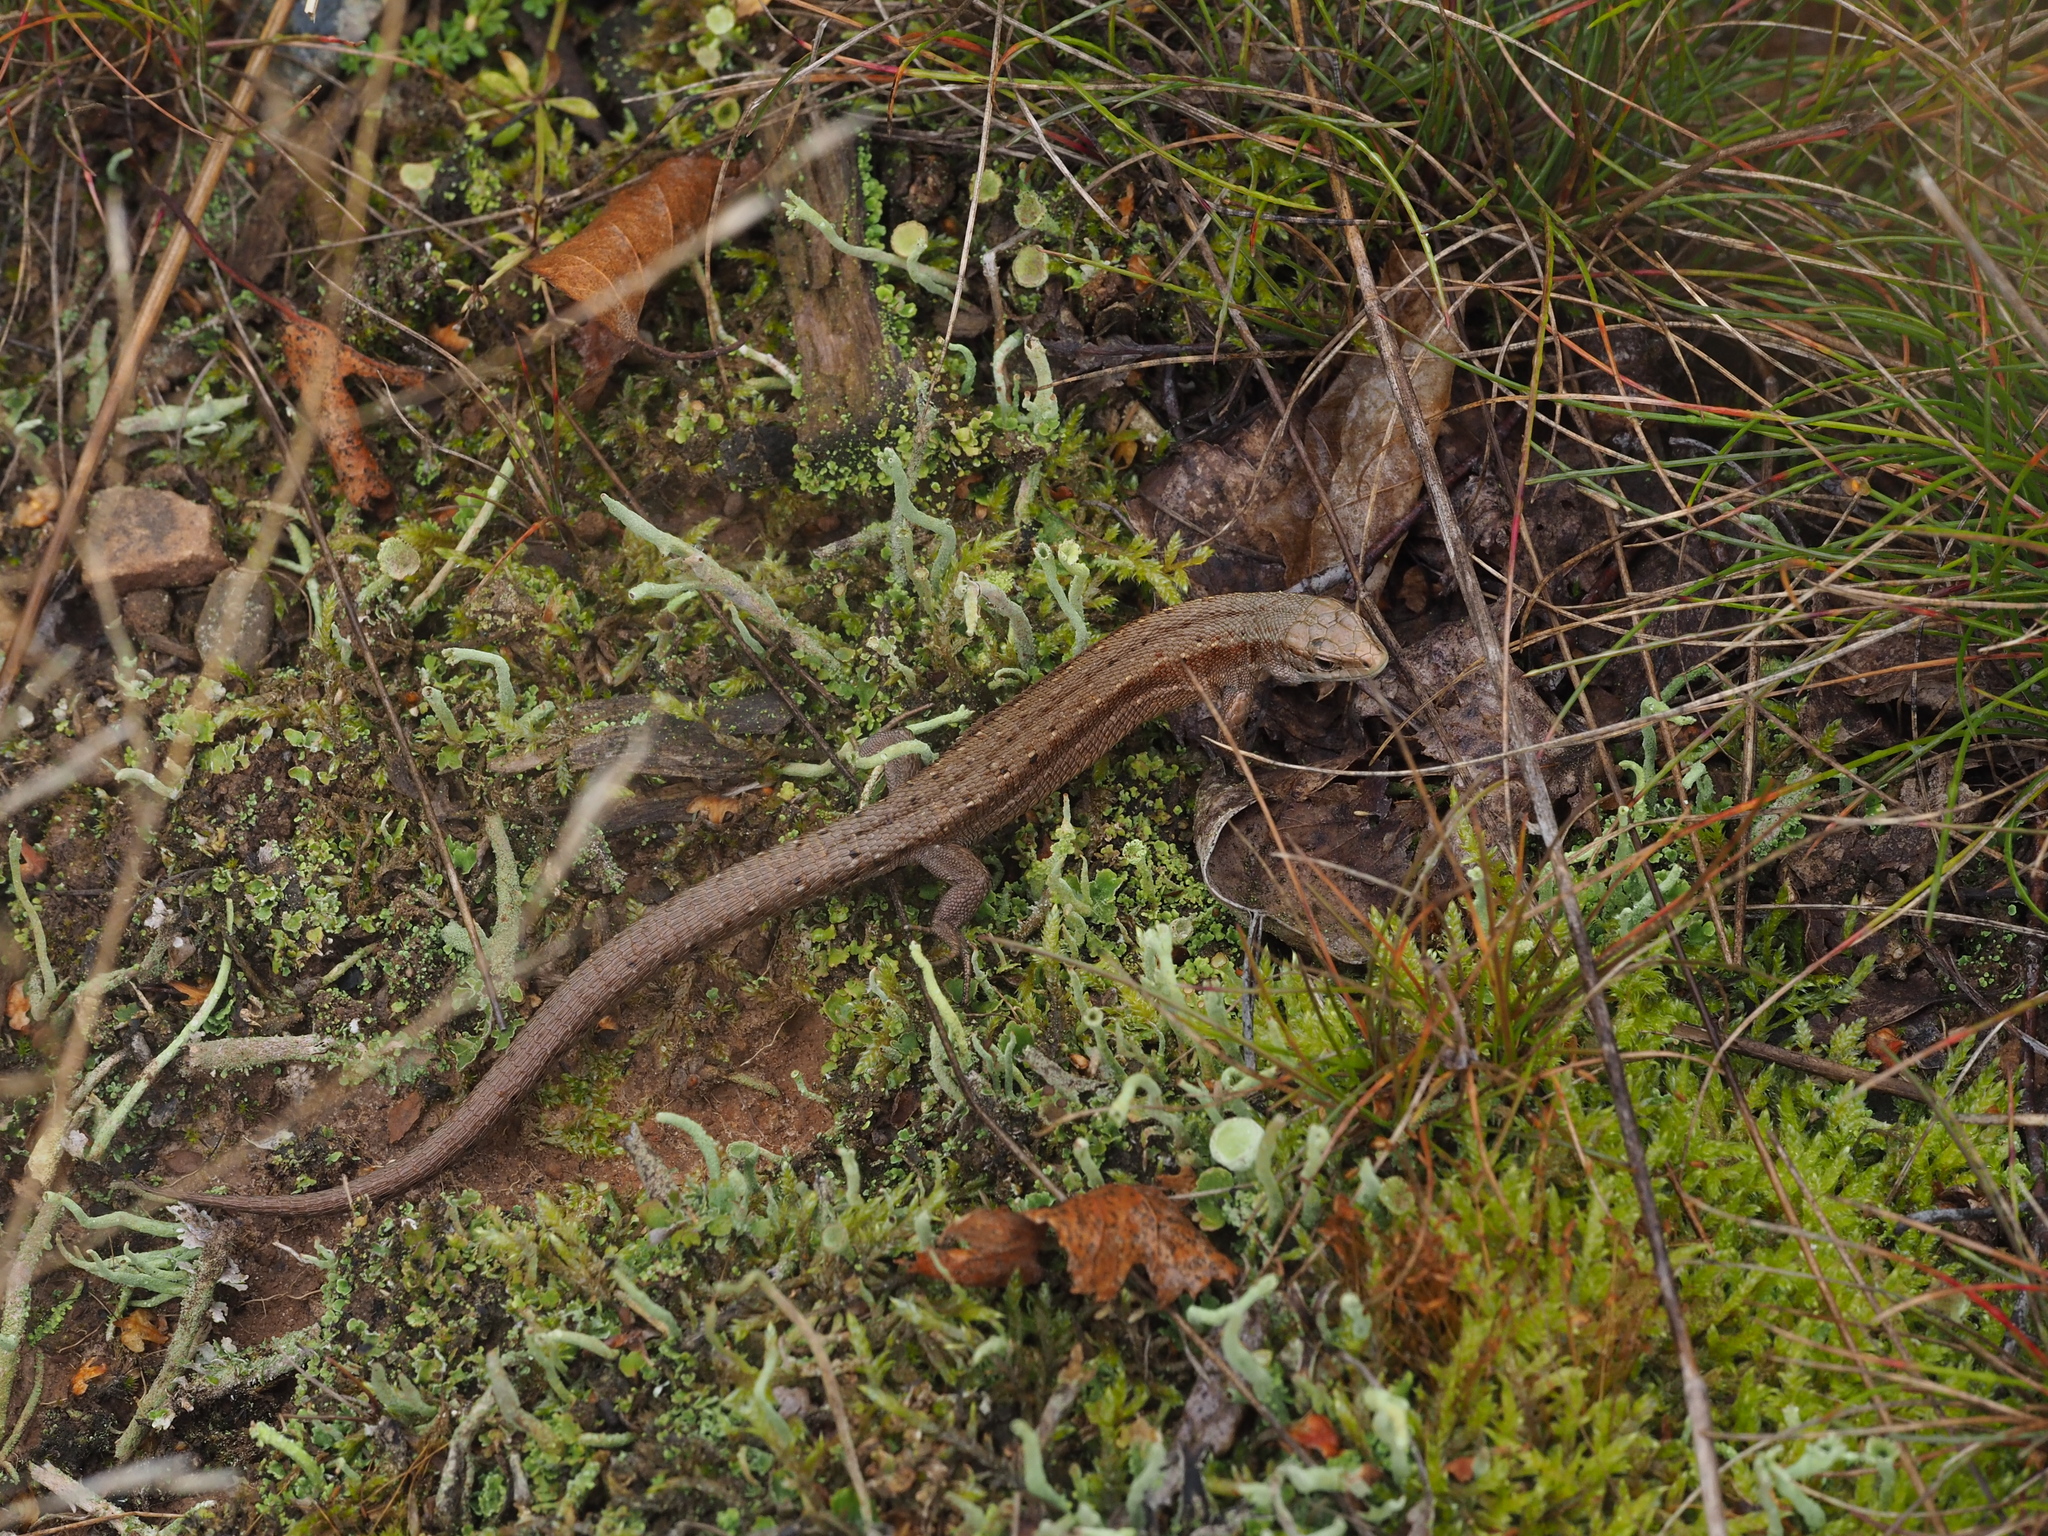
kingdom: Animalia
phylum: Chordata
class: Squamata
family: Lacertidae
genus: Zootoca
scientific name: Zootoca vivipara
